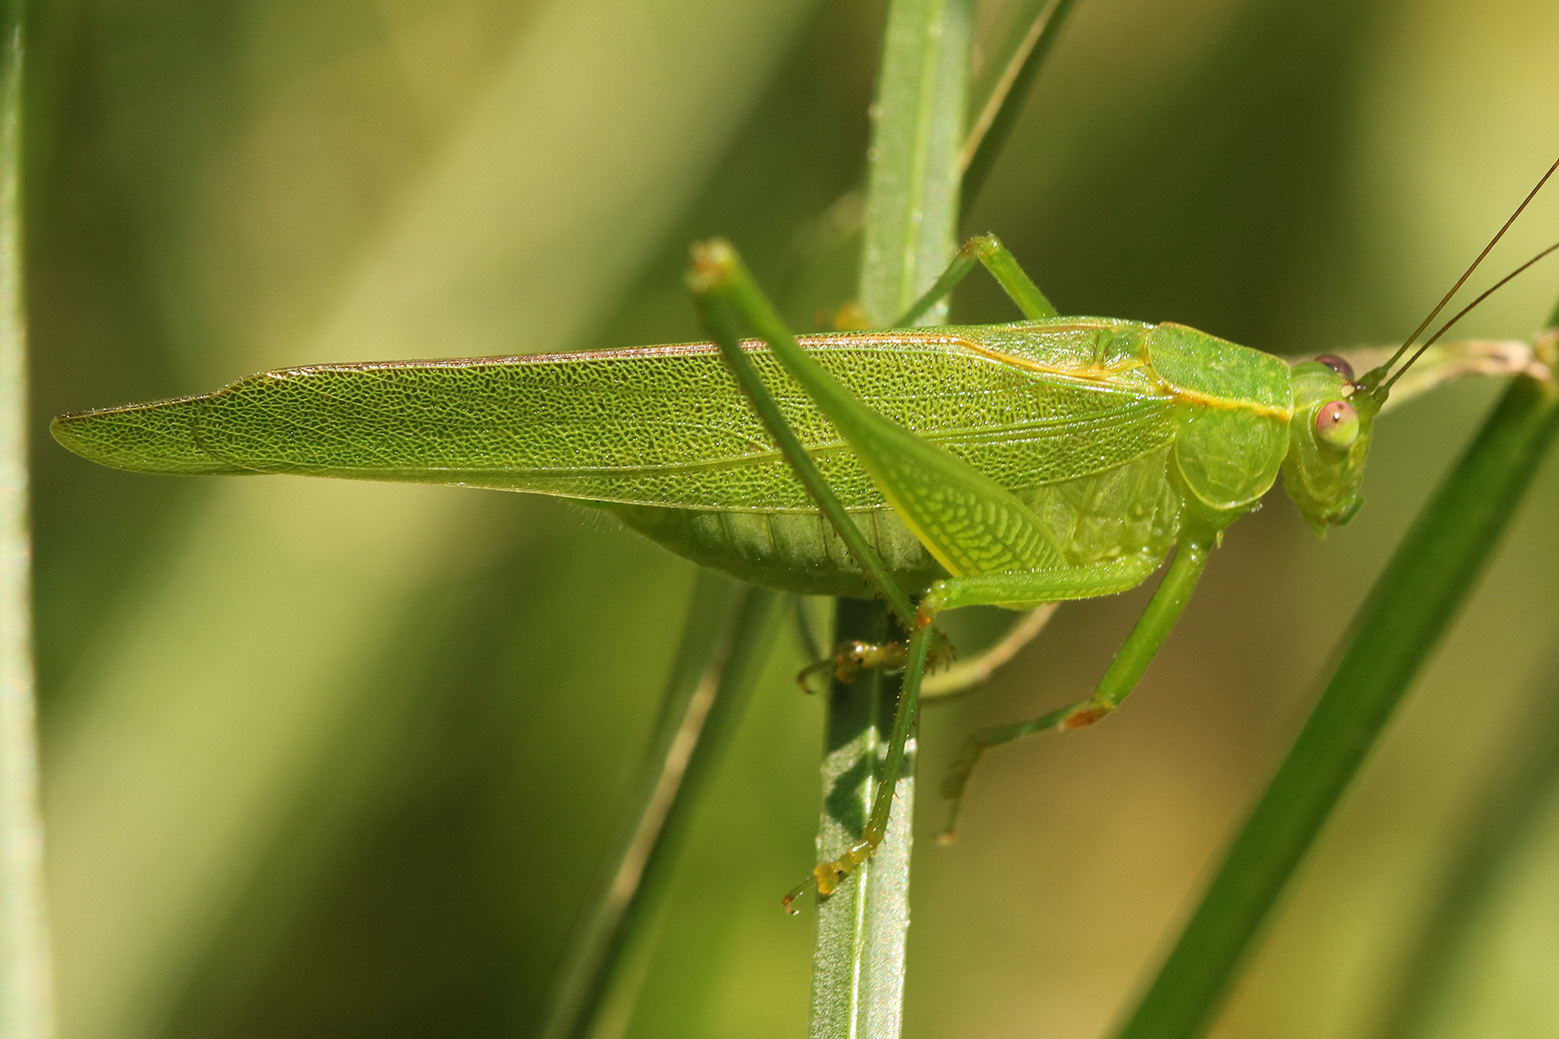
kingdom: Animalia
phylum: Arthropoda
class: Insecta
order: Orthoptera
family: Tettigoniidae
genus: Ligocatinus
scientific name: Ligocatinus spinatus
